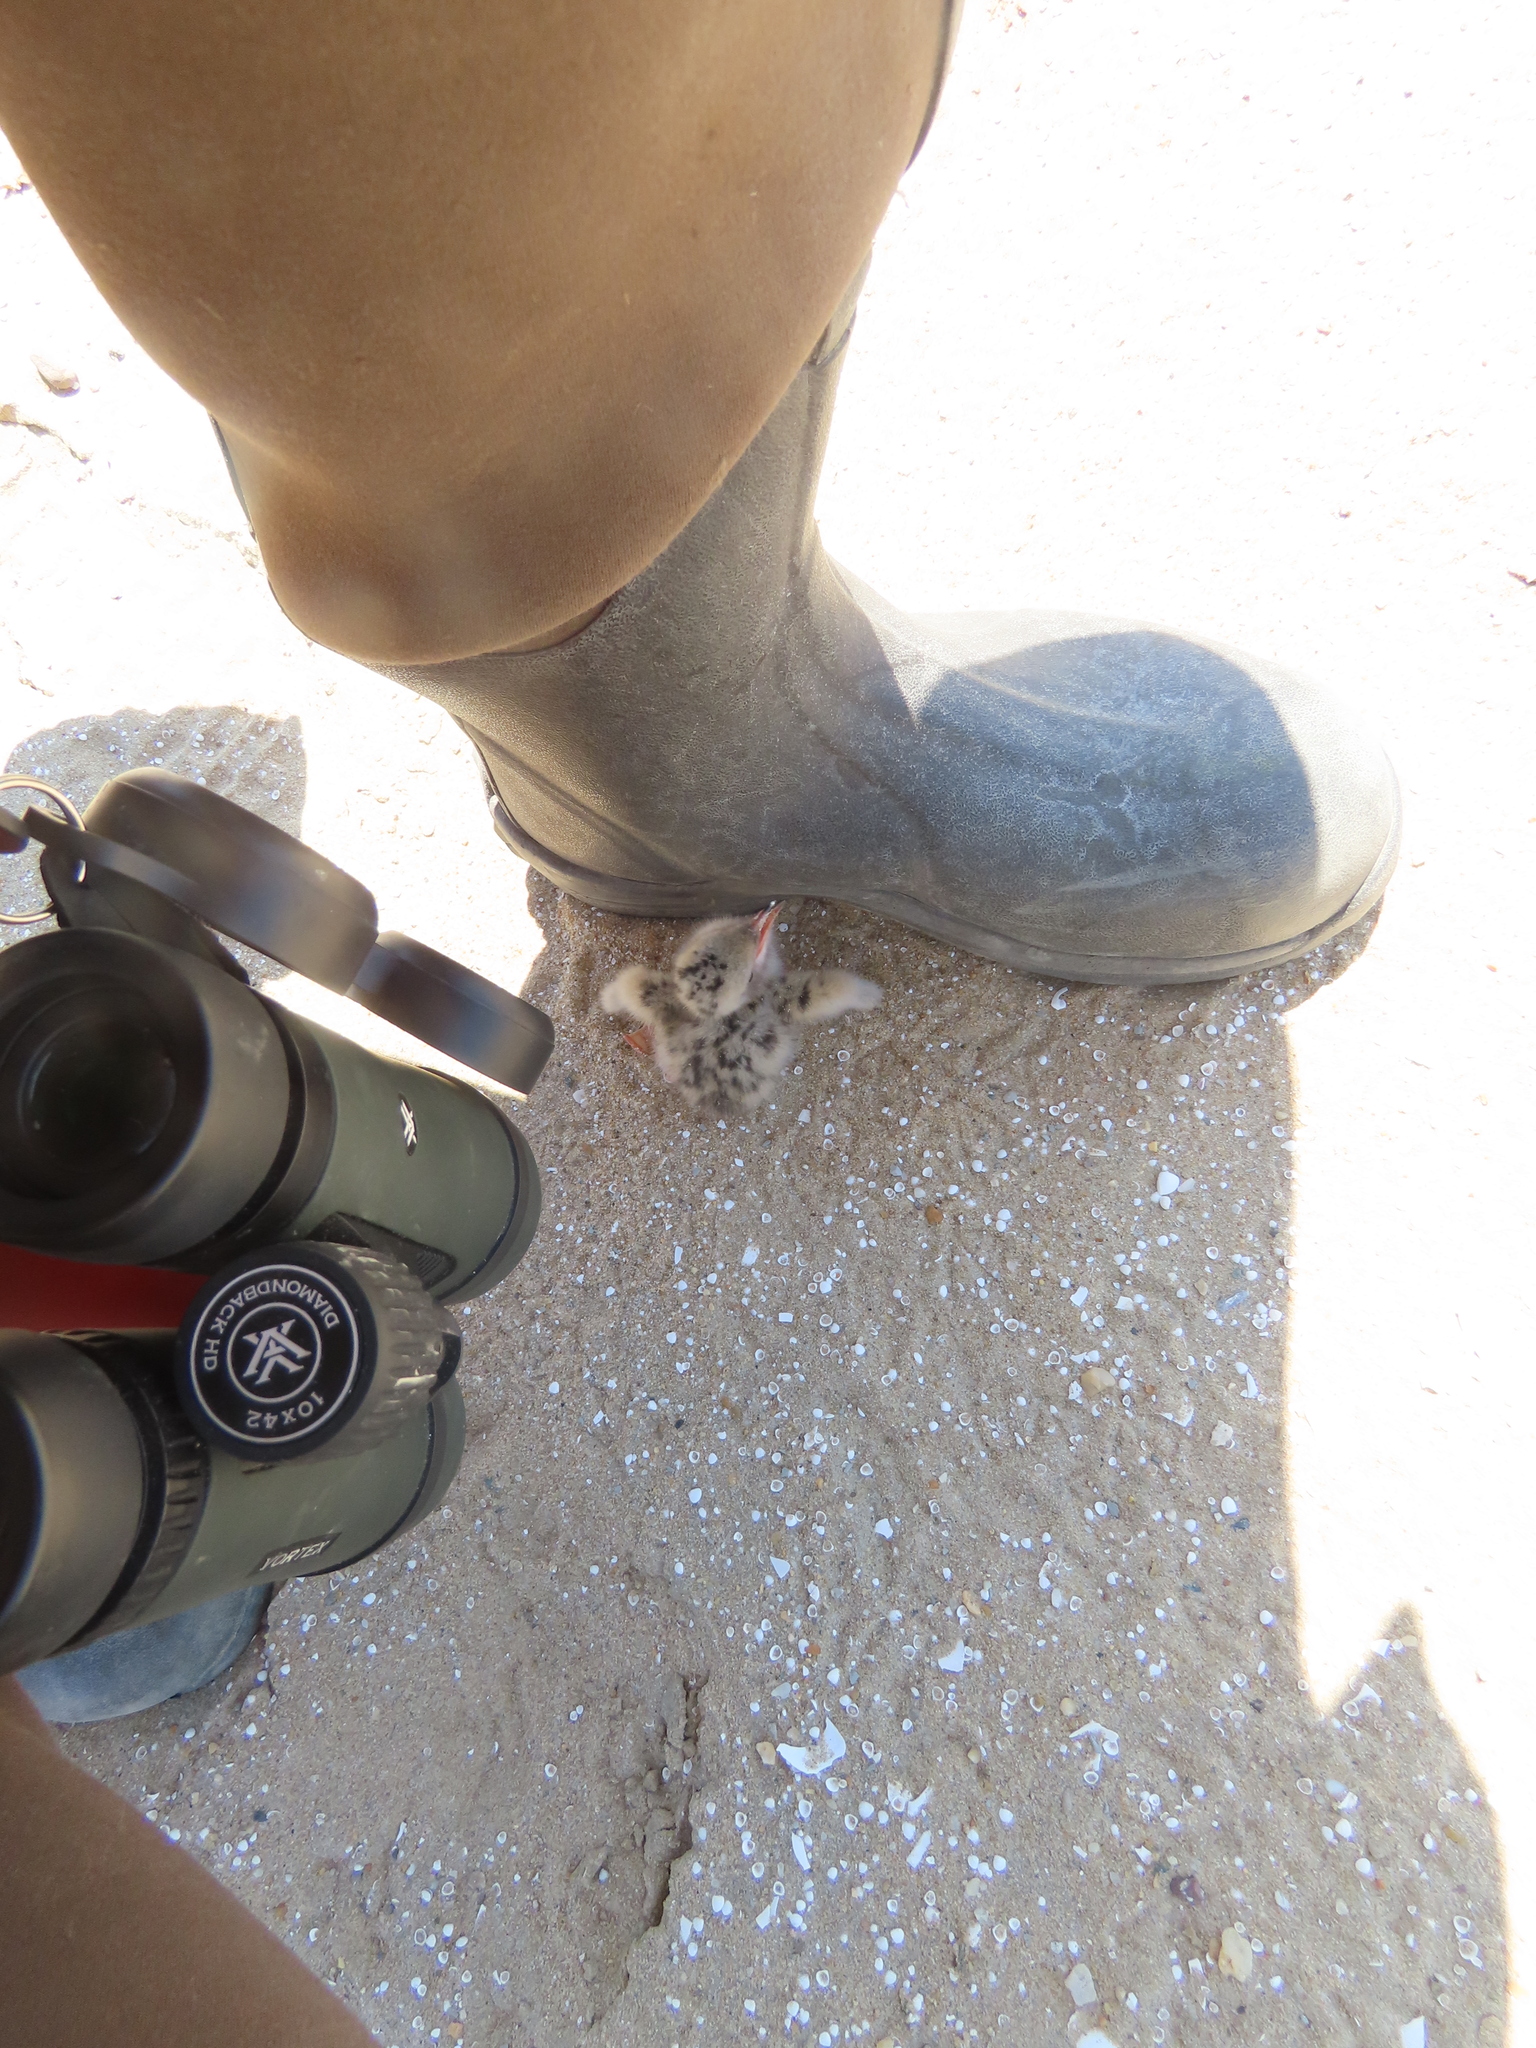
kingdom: Animalia
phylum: Chordata
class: Aves
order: Charadriiformes
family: Laridae
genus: Sterna
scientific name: Sterna hirundo
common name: Common tern
